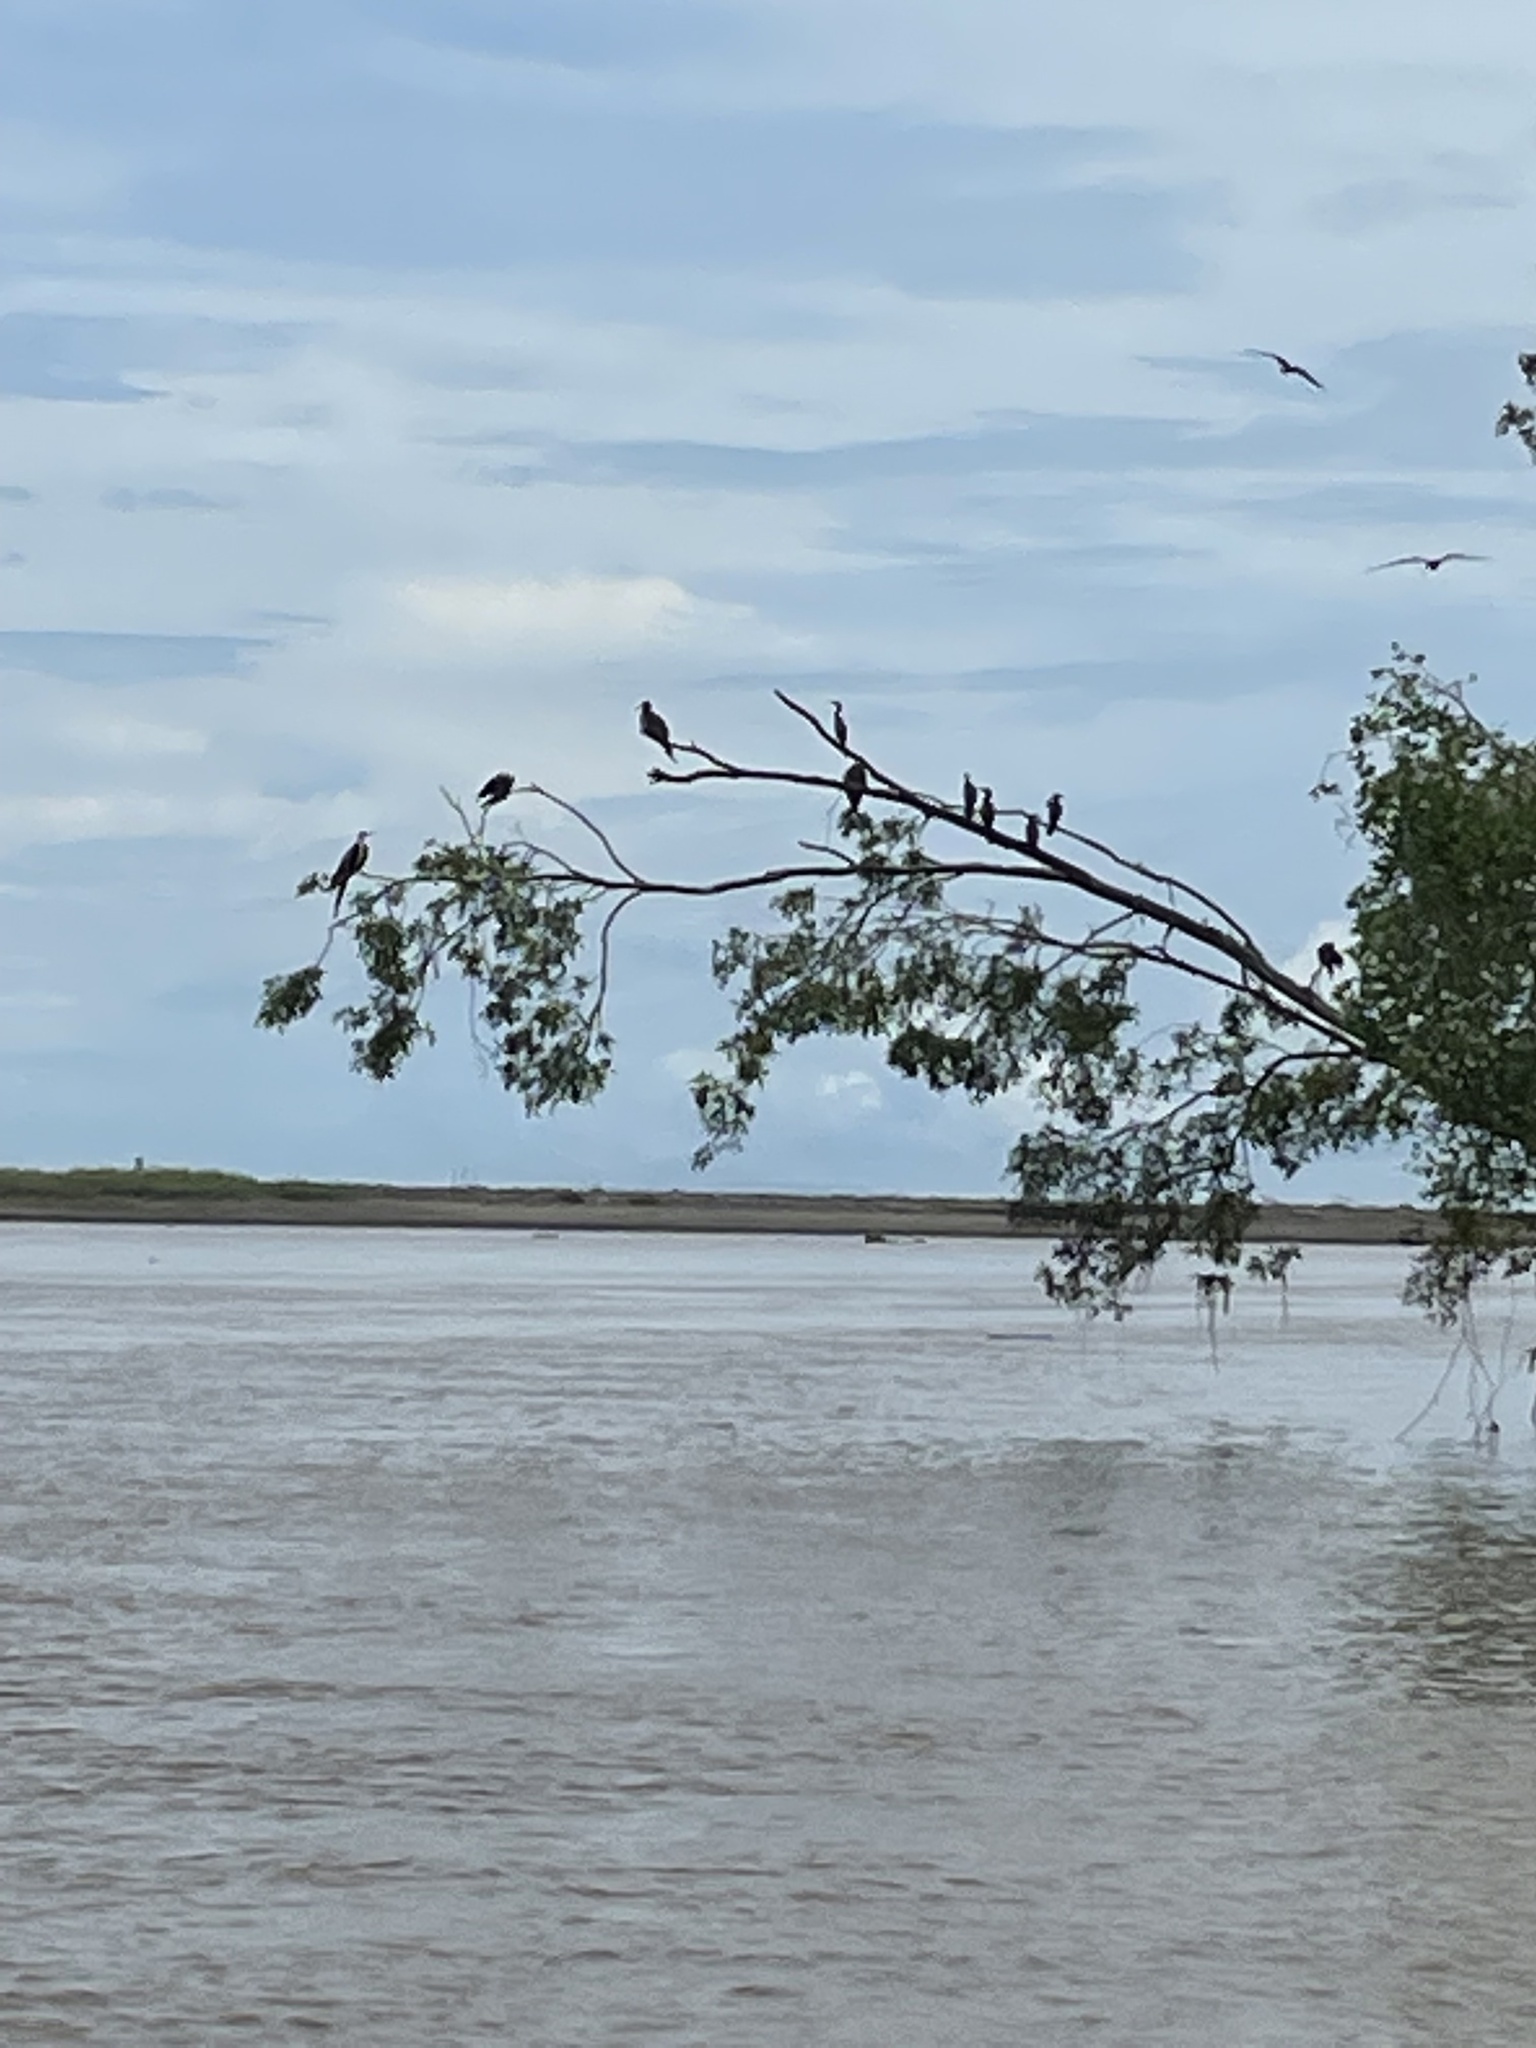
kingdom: Animalia
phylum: Chordata
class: Aves
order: Suliformes
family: Fregatidae
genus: Fregata
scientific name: Fregata magnificens
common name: Magnificent frigatebird
